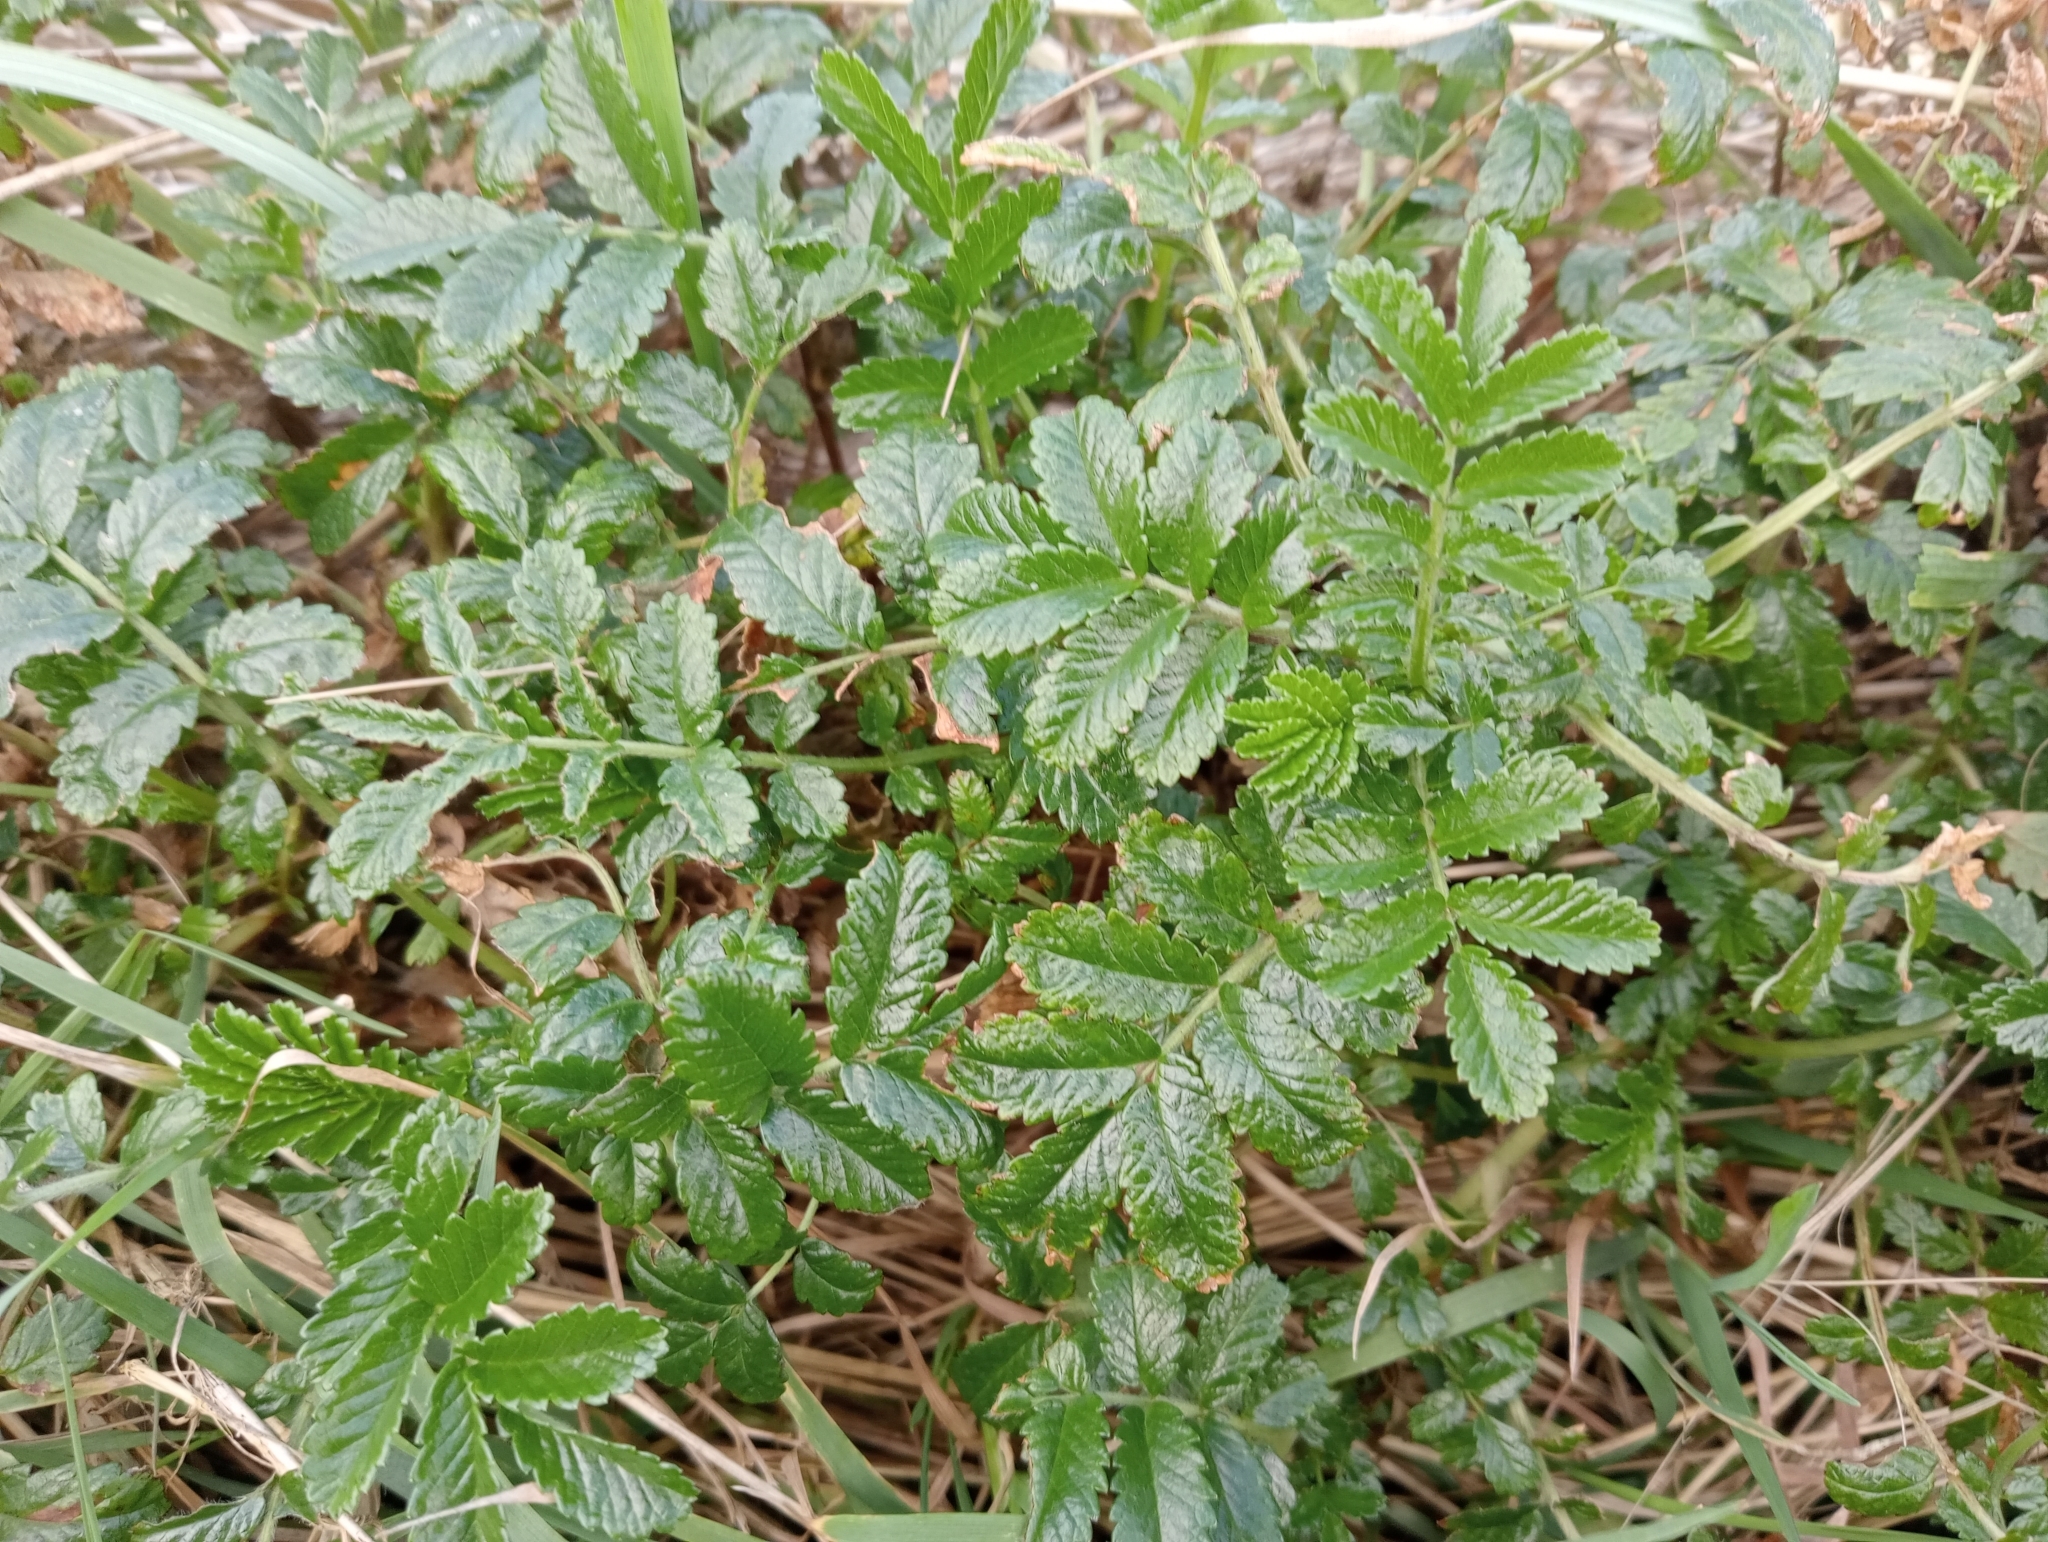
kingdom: Plantae
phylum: Tracheophyta
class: Magnoliopsida
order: Rosales
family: Rosaceae
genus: Acaena
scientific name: Acaena pallida
